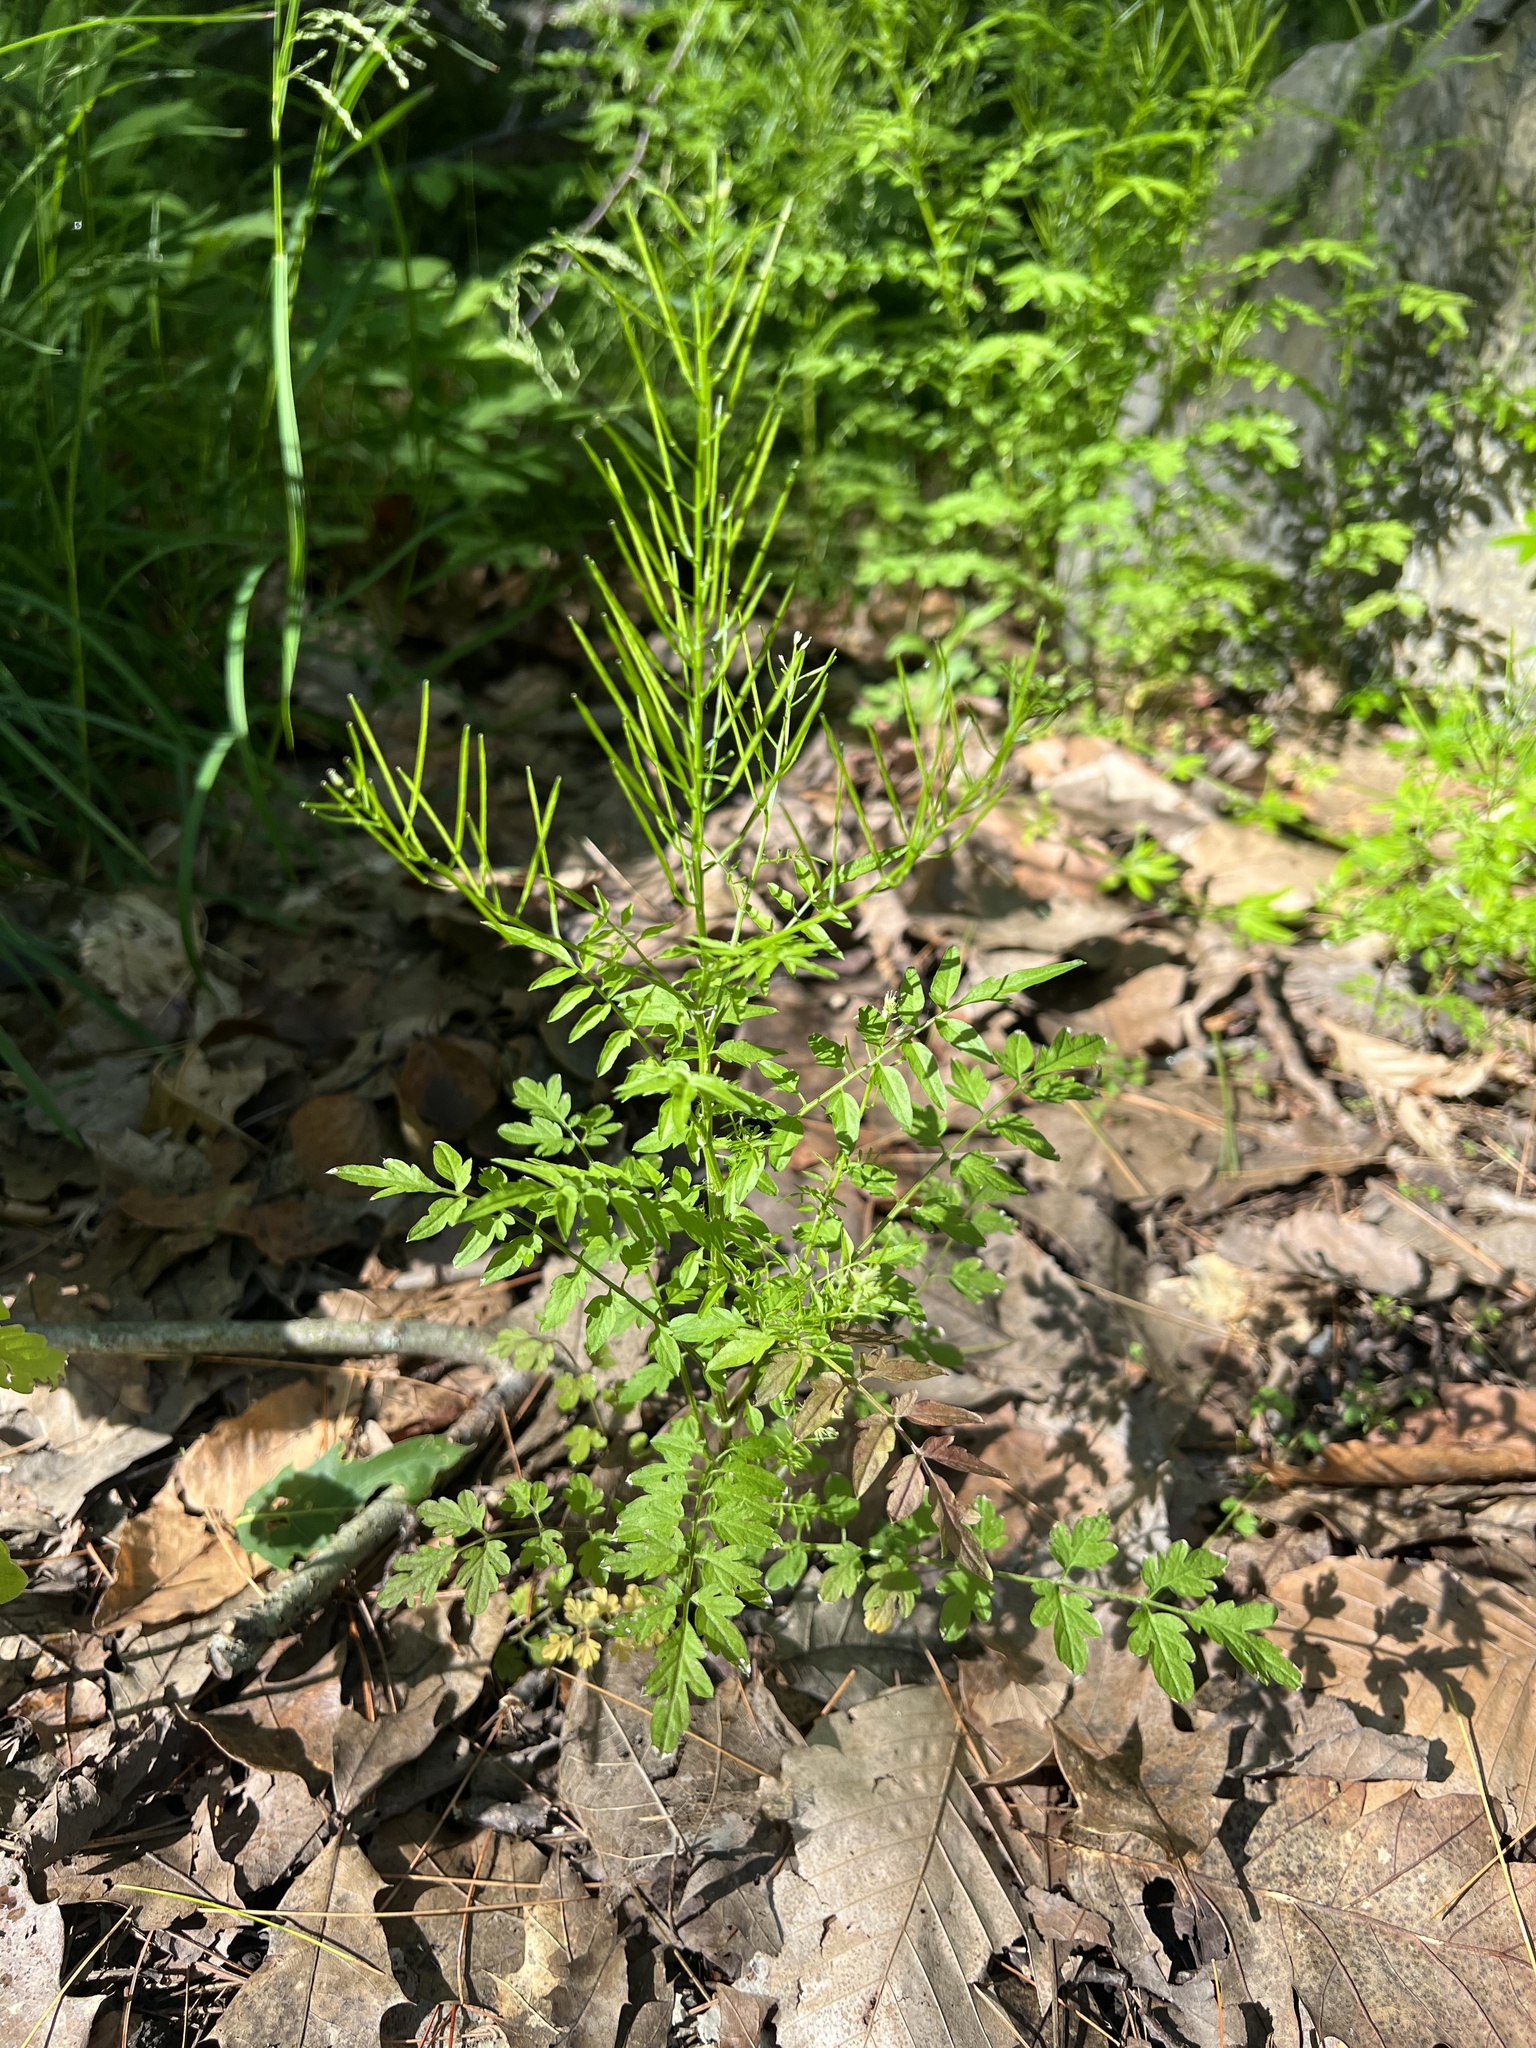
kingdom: Plantae
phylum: Tracheophyta
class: Magnoliopsida
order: Brassicales
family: Brassicaceae
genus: Cardamine
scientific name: Cardamine impatiens
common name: Narrow-leaved bitter-cress
